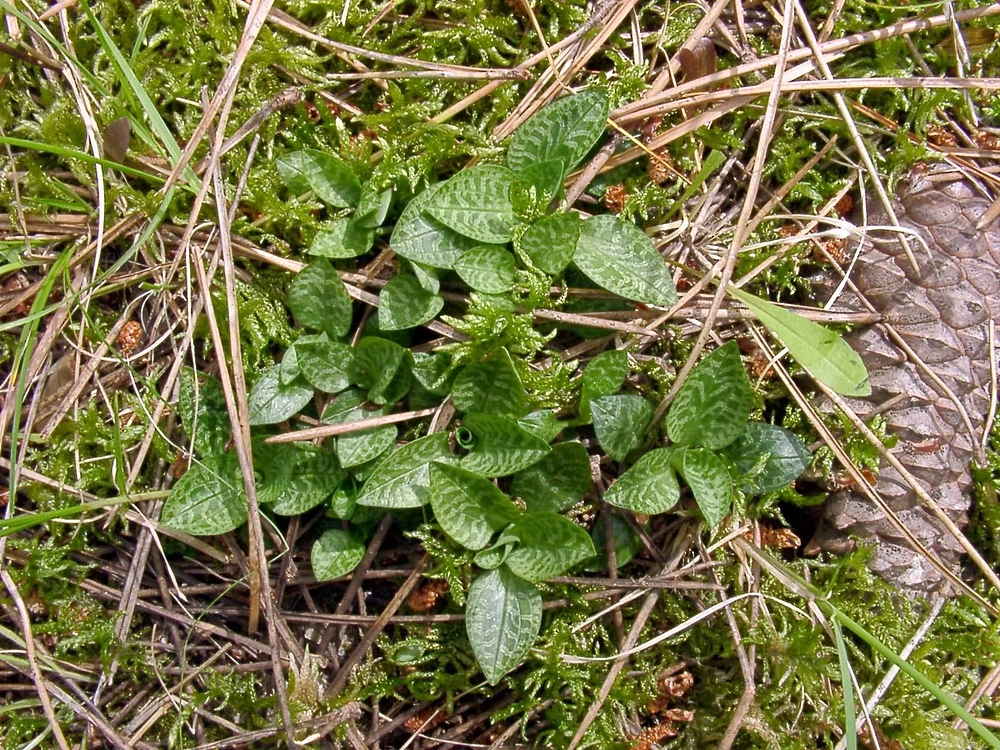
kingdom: Plantae
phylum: Tracheophyta
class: Liliopsida
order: Asparagales
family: Orchidaceae
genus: Goodyera
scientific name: Goodyera repens
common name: Creeping lady's-tresses
